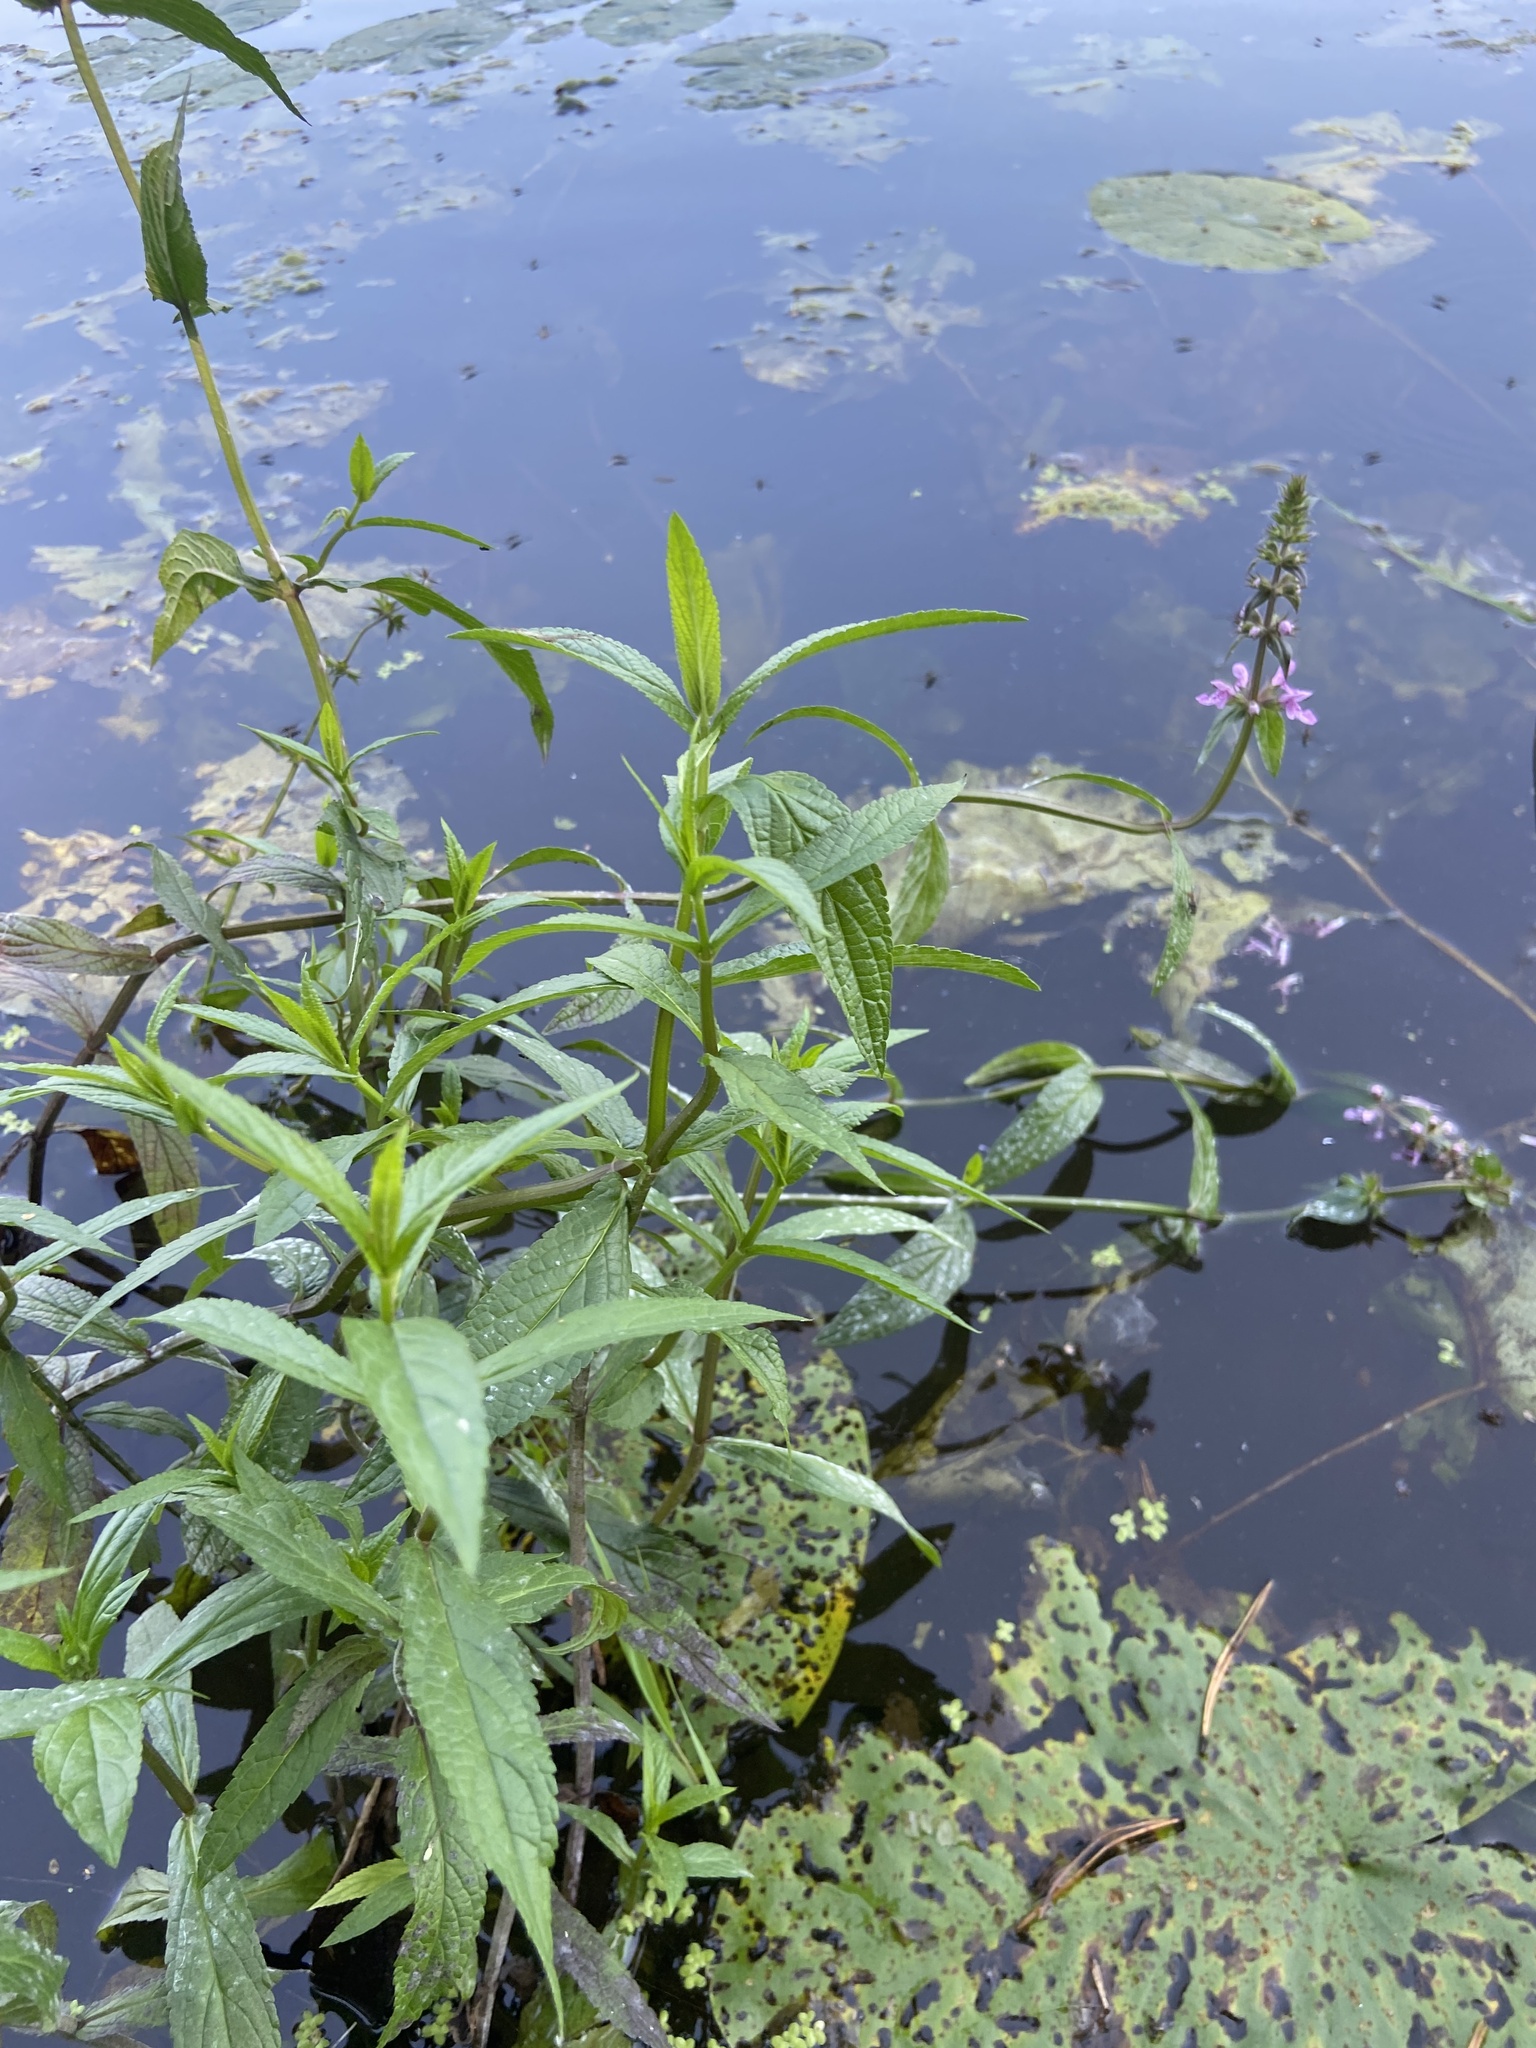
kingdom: Plantae
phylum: Tracheophyta
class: Magnoliopsida
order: Lamiales
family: Lamiaceae
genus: Stachys
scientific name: Stachys palustris
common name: Marsh woundwort
